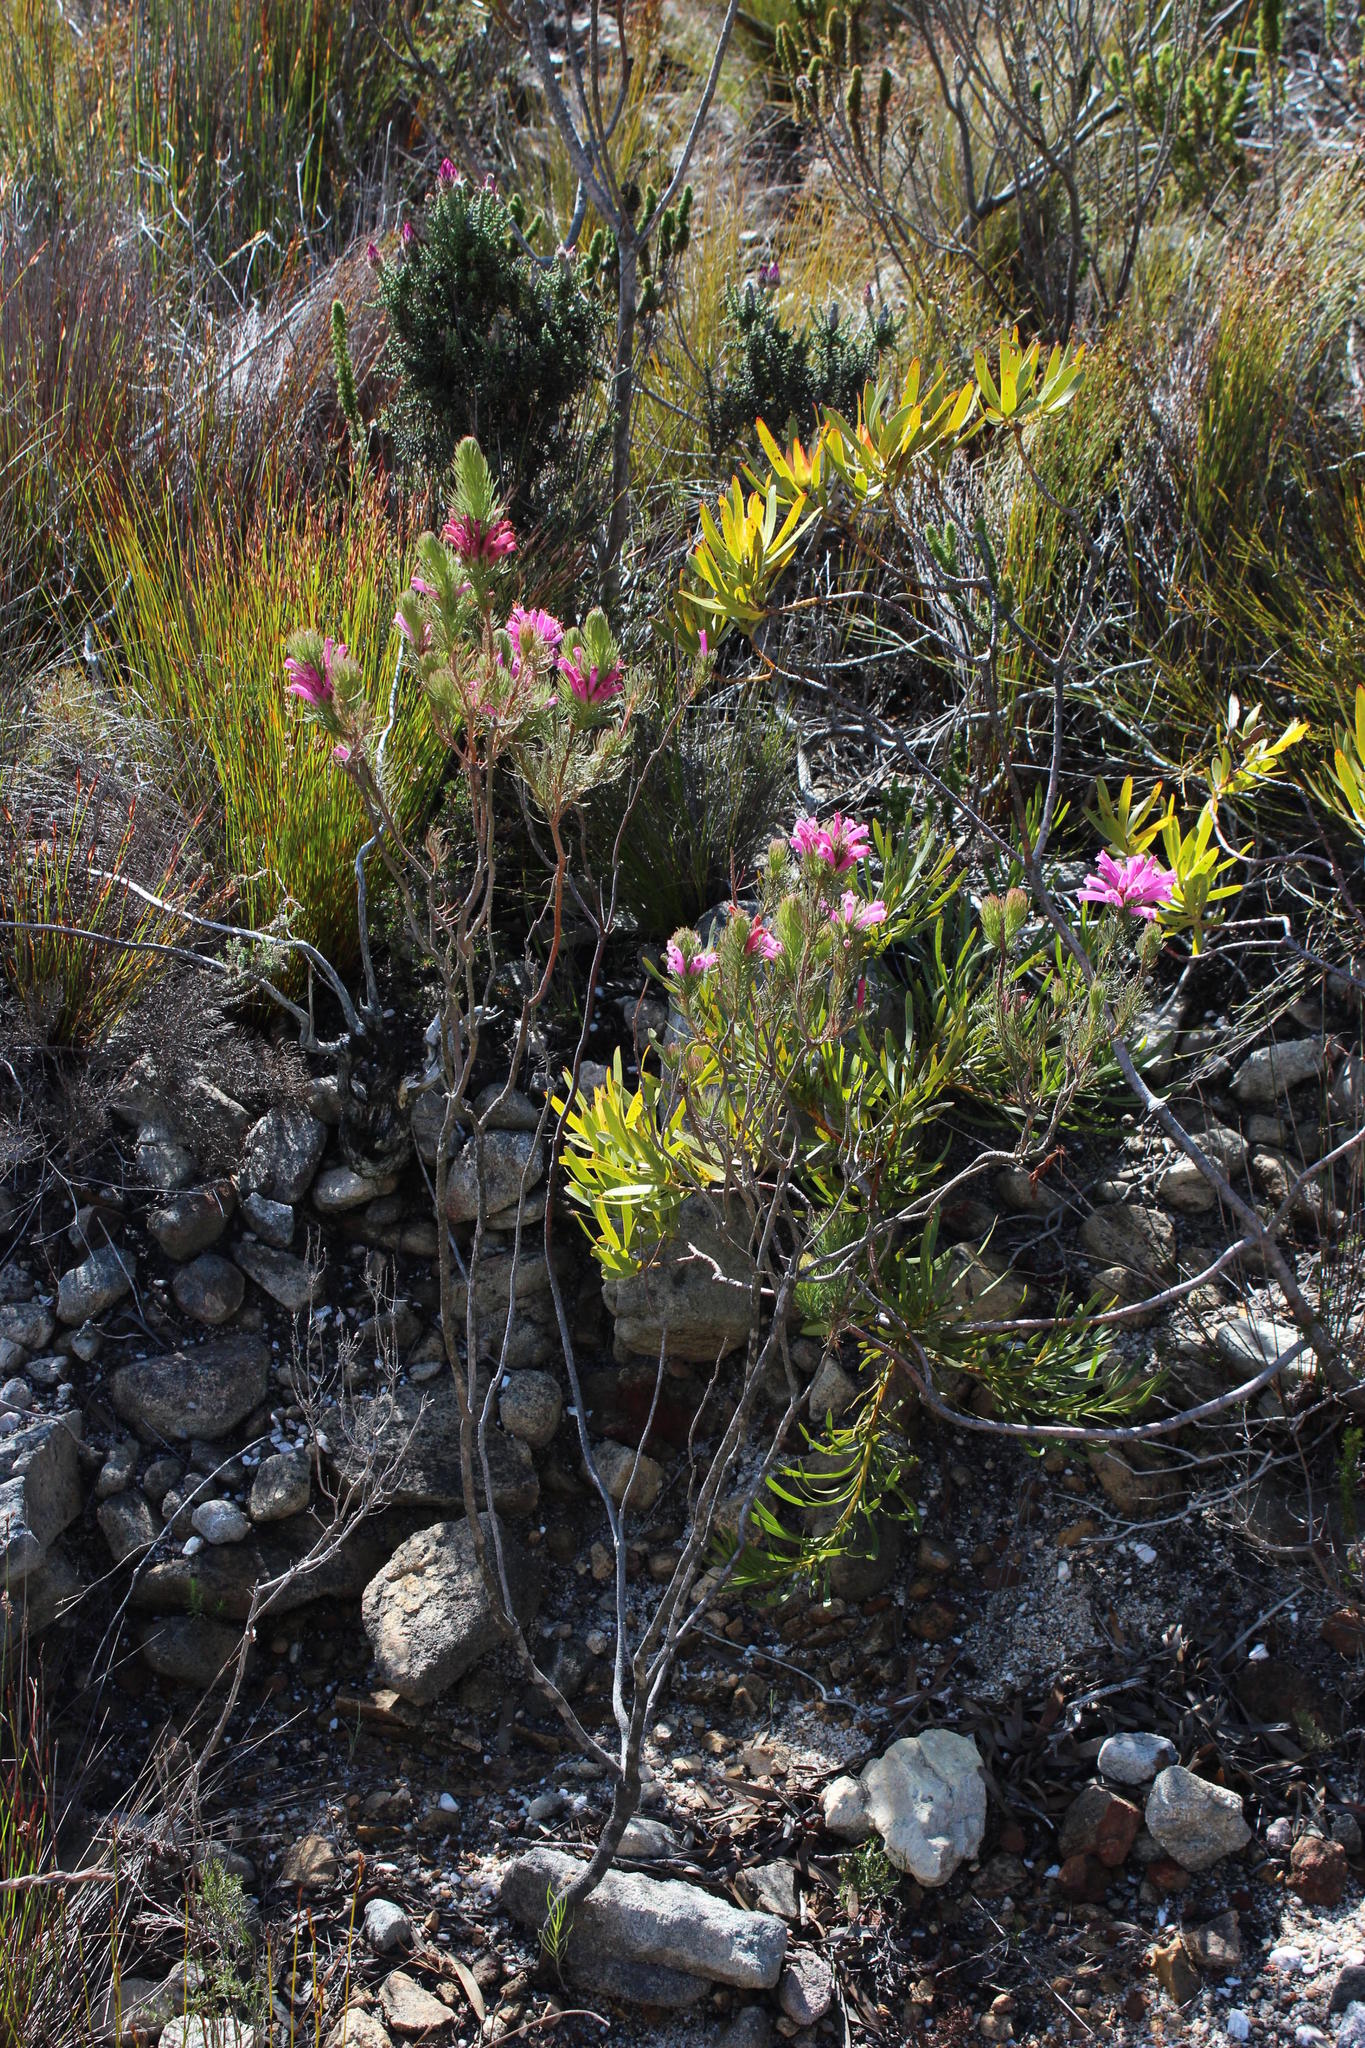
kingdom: Plantae
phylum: Tracheophyta
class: Magnoliopsida
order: Ericales
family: Ericaceae
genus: Erica
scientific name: Erica vestita
